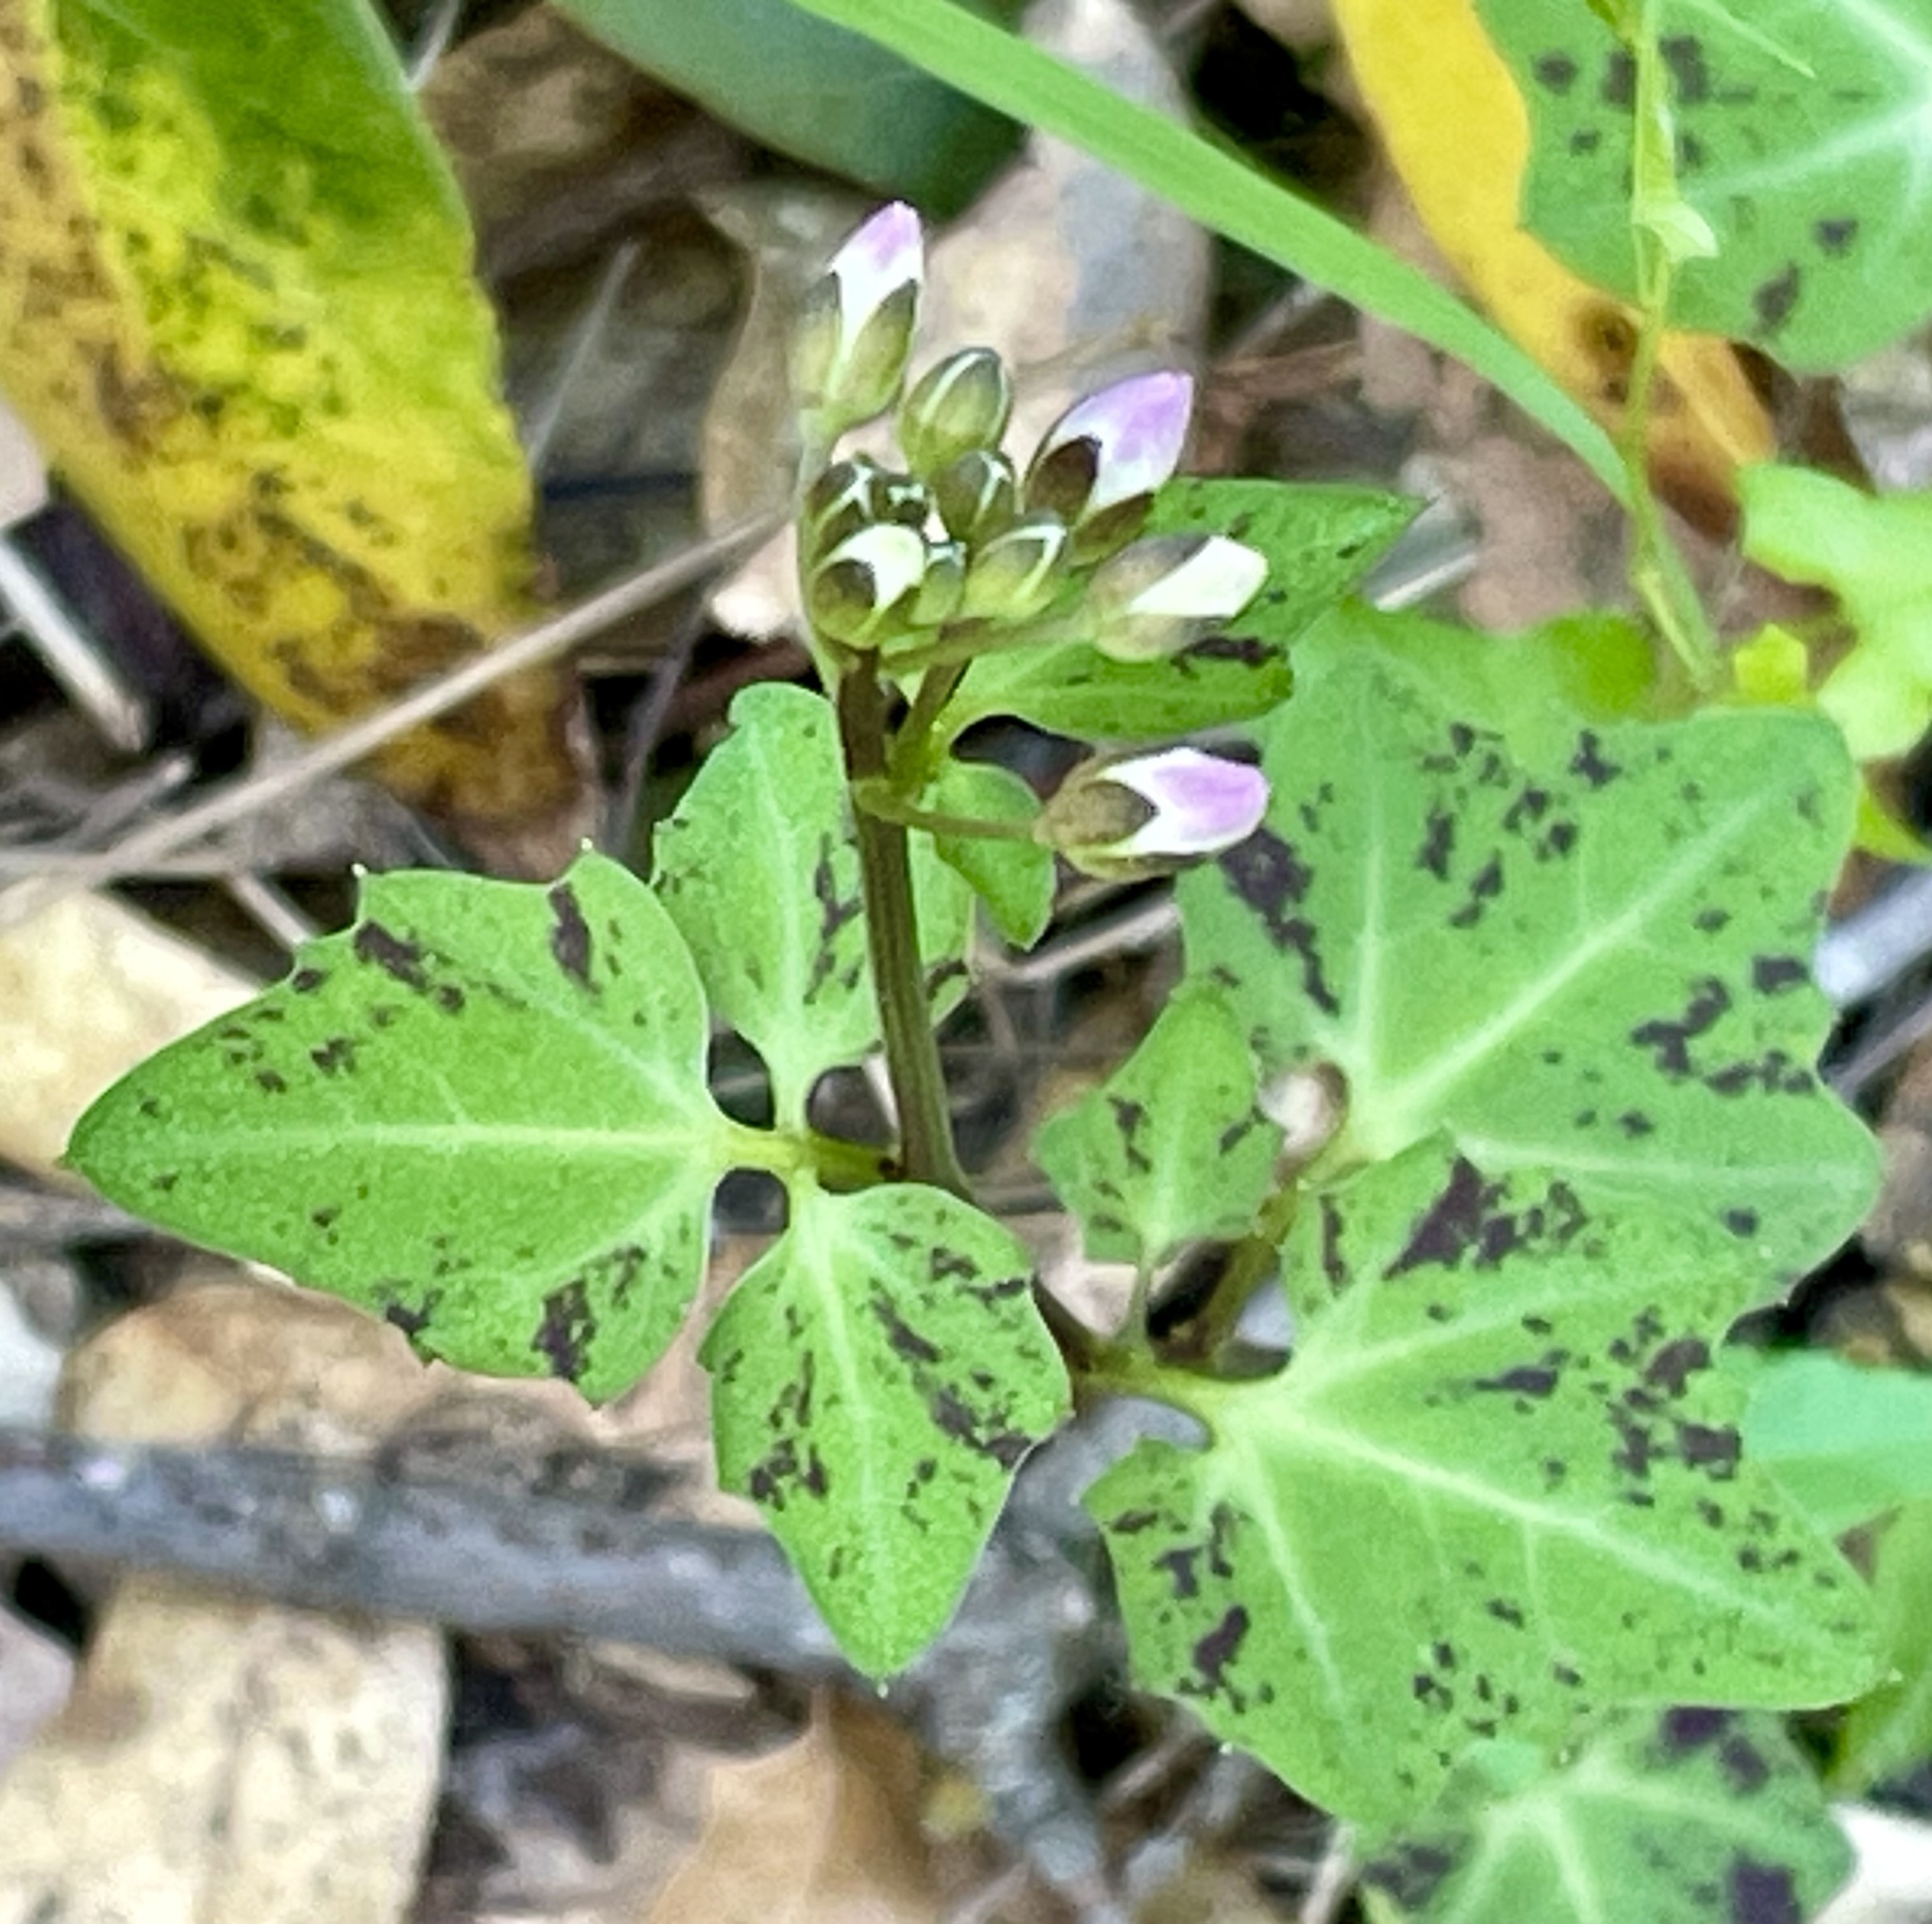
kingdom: Plantae
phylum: Tracheophyta
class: Magnoliopsida
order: Brassicales
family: Brassicaceae
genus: Cardamine
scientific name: Cardamine californica
